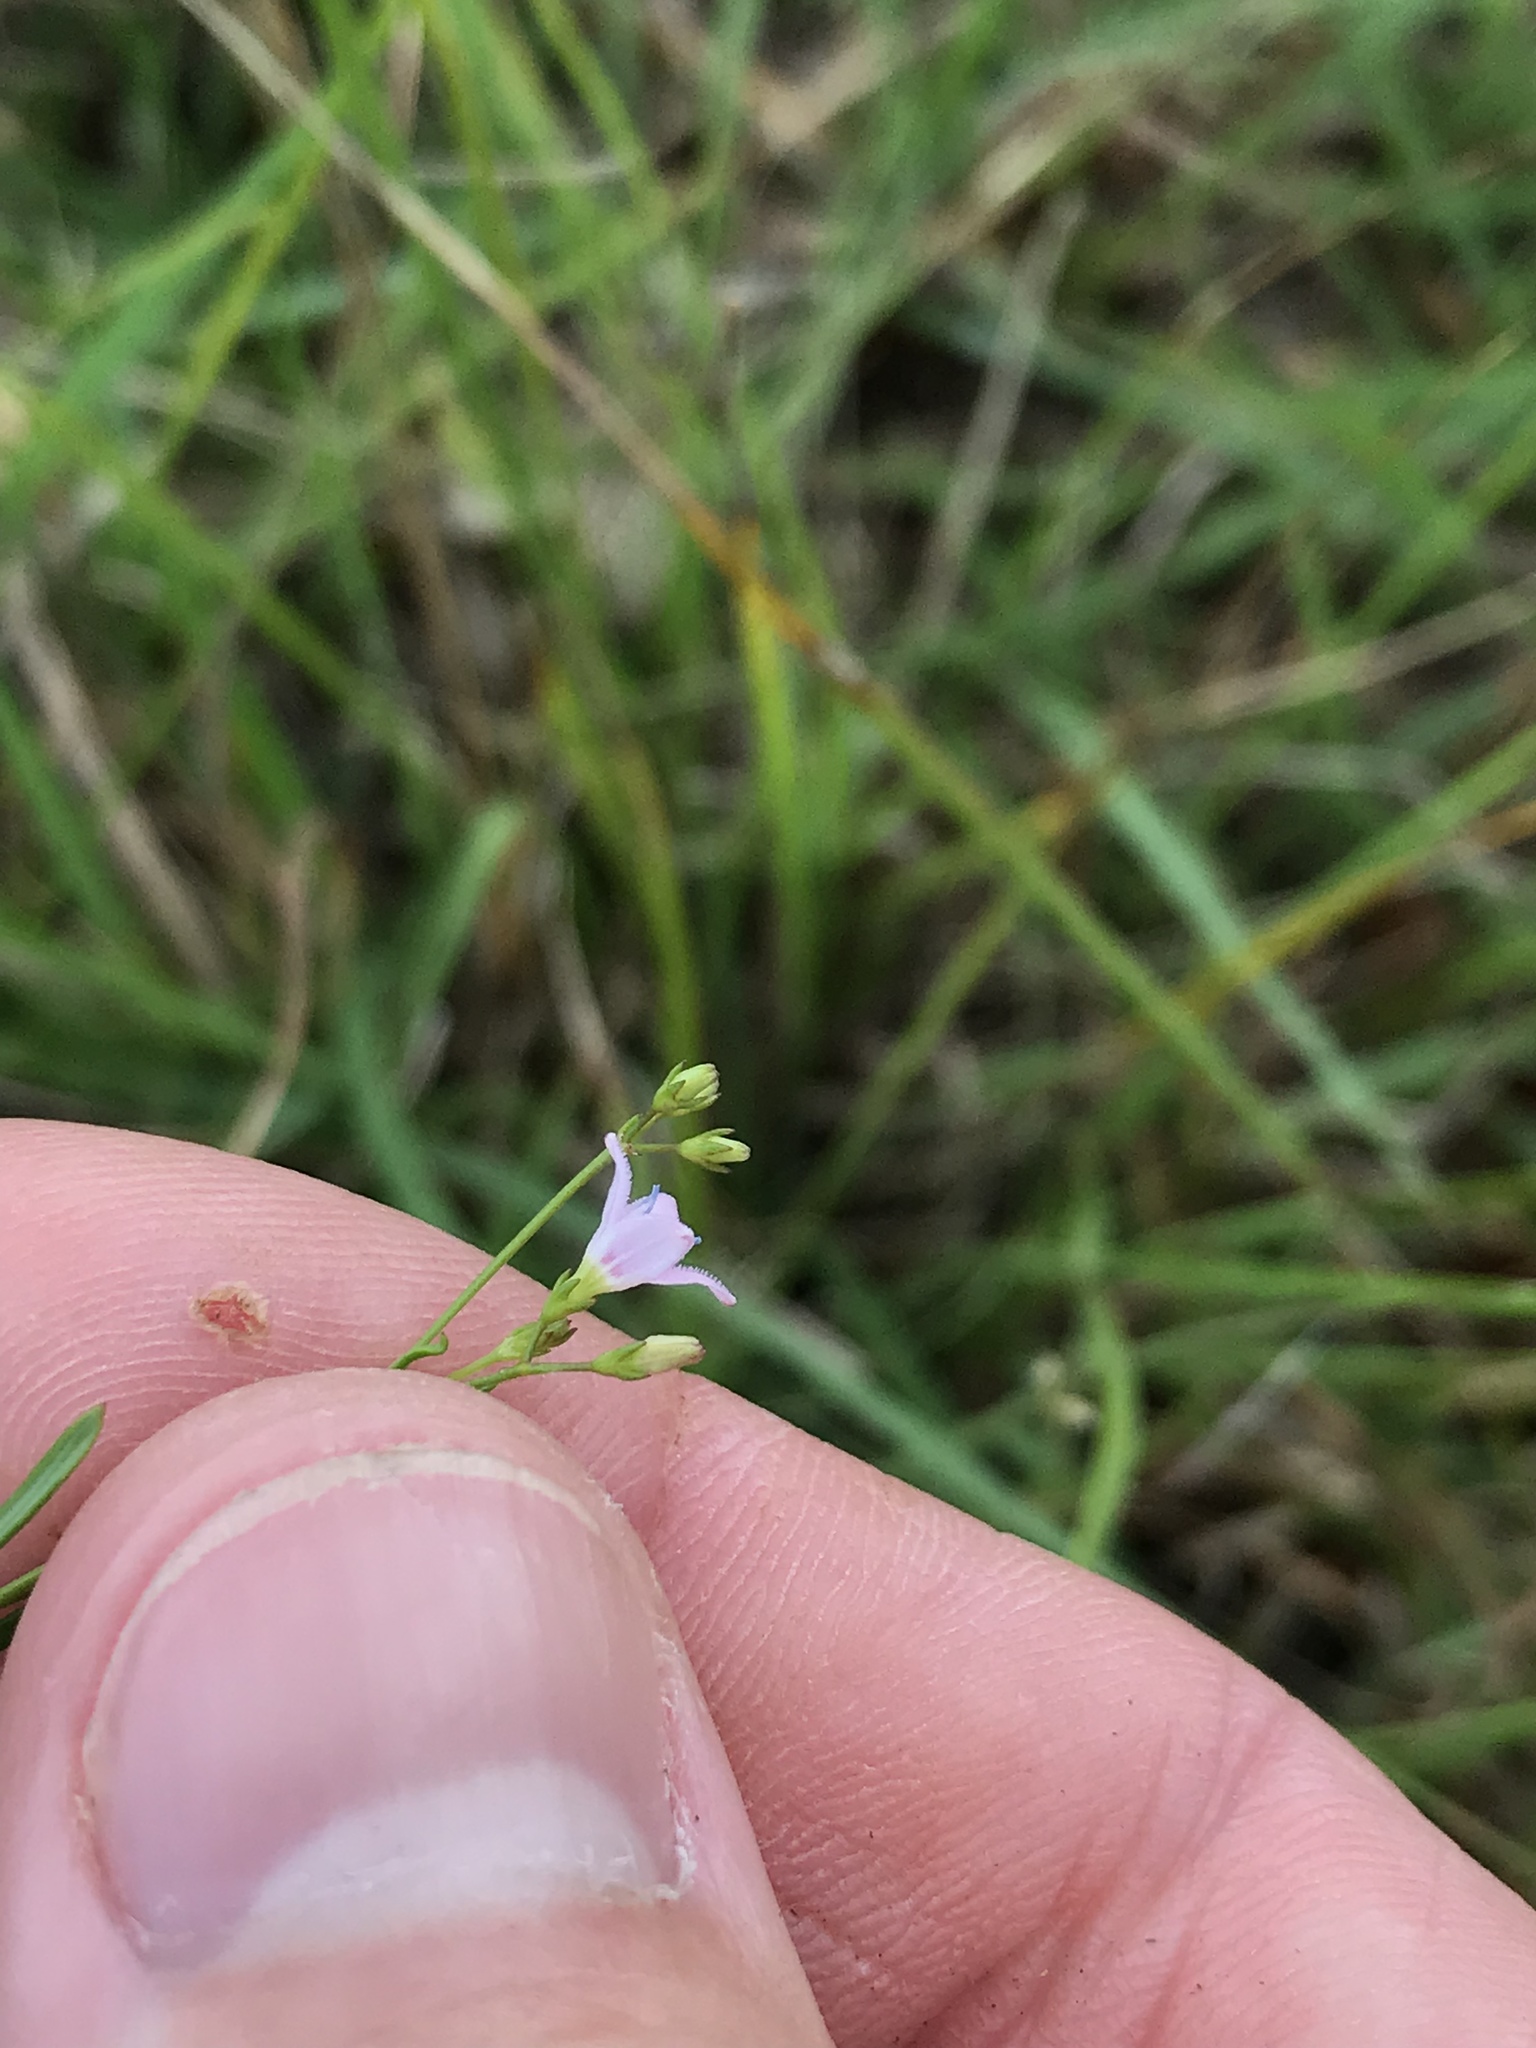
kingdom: Plantae
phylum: Tracheophyta
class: Magnoliopsida
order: Gentianales
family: Rubiaceae
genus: Stenaria
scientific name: Stenaria nigricans
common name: Diamondflowers
